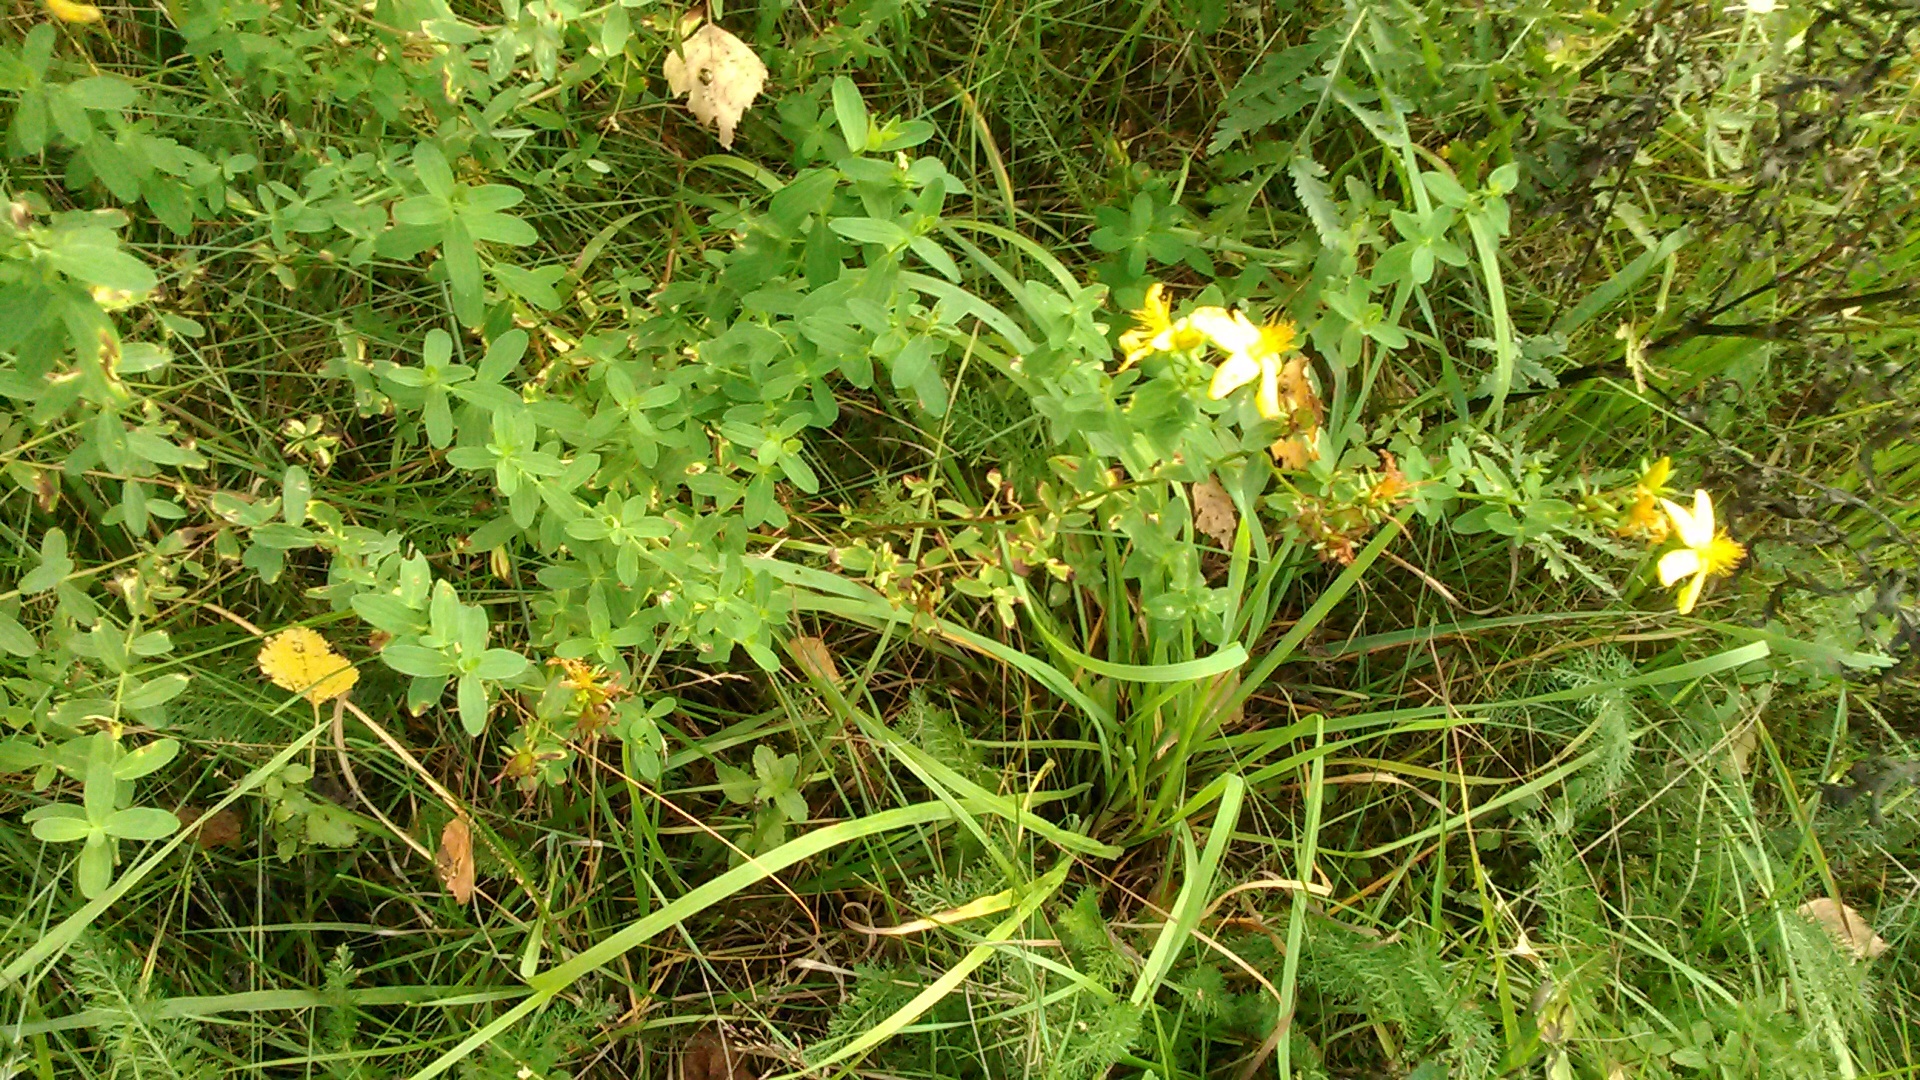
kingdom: Plantae
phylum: Tracheophyta
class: Magnoliopsida
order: Malpighiales
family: Hypericaceae
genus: Hypericum
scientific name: Hypericum perforatum
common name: Common st. johnswort
